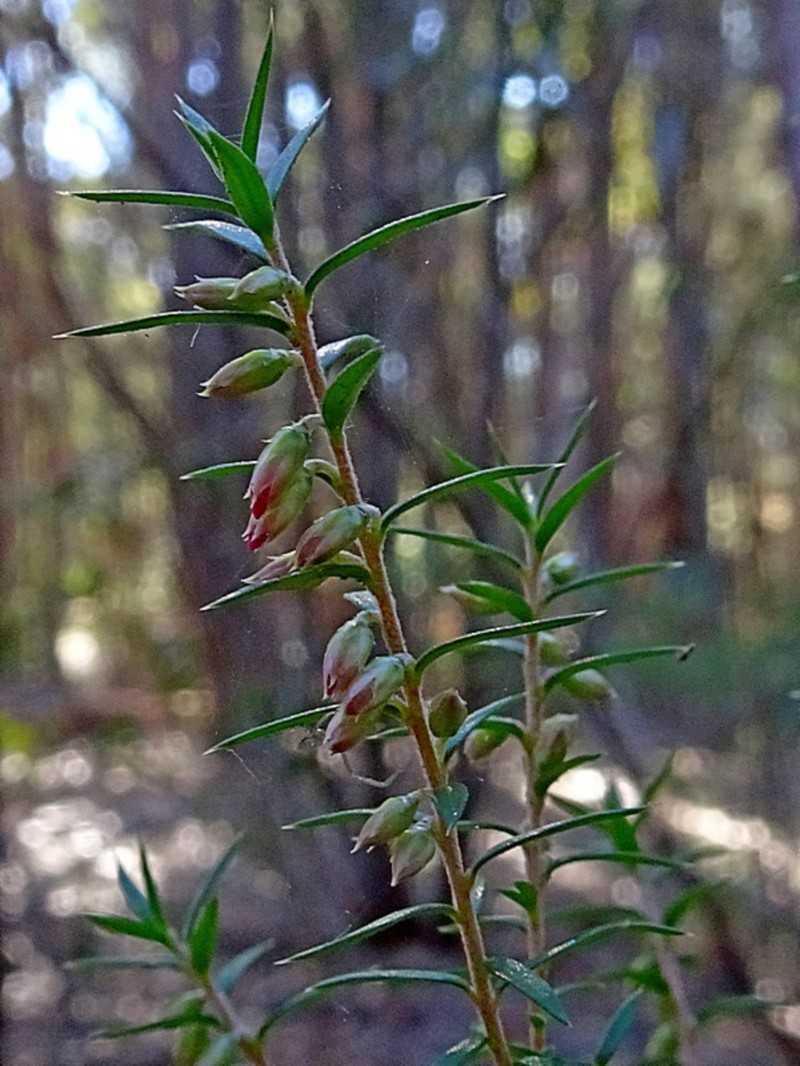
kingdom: Plantae
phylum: Tracheophyta
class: Magnoliopsida
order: Ericales
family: Ericaceae
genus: Epacris
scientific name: Epacris impressa
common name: Common-heath
